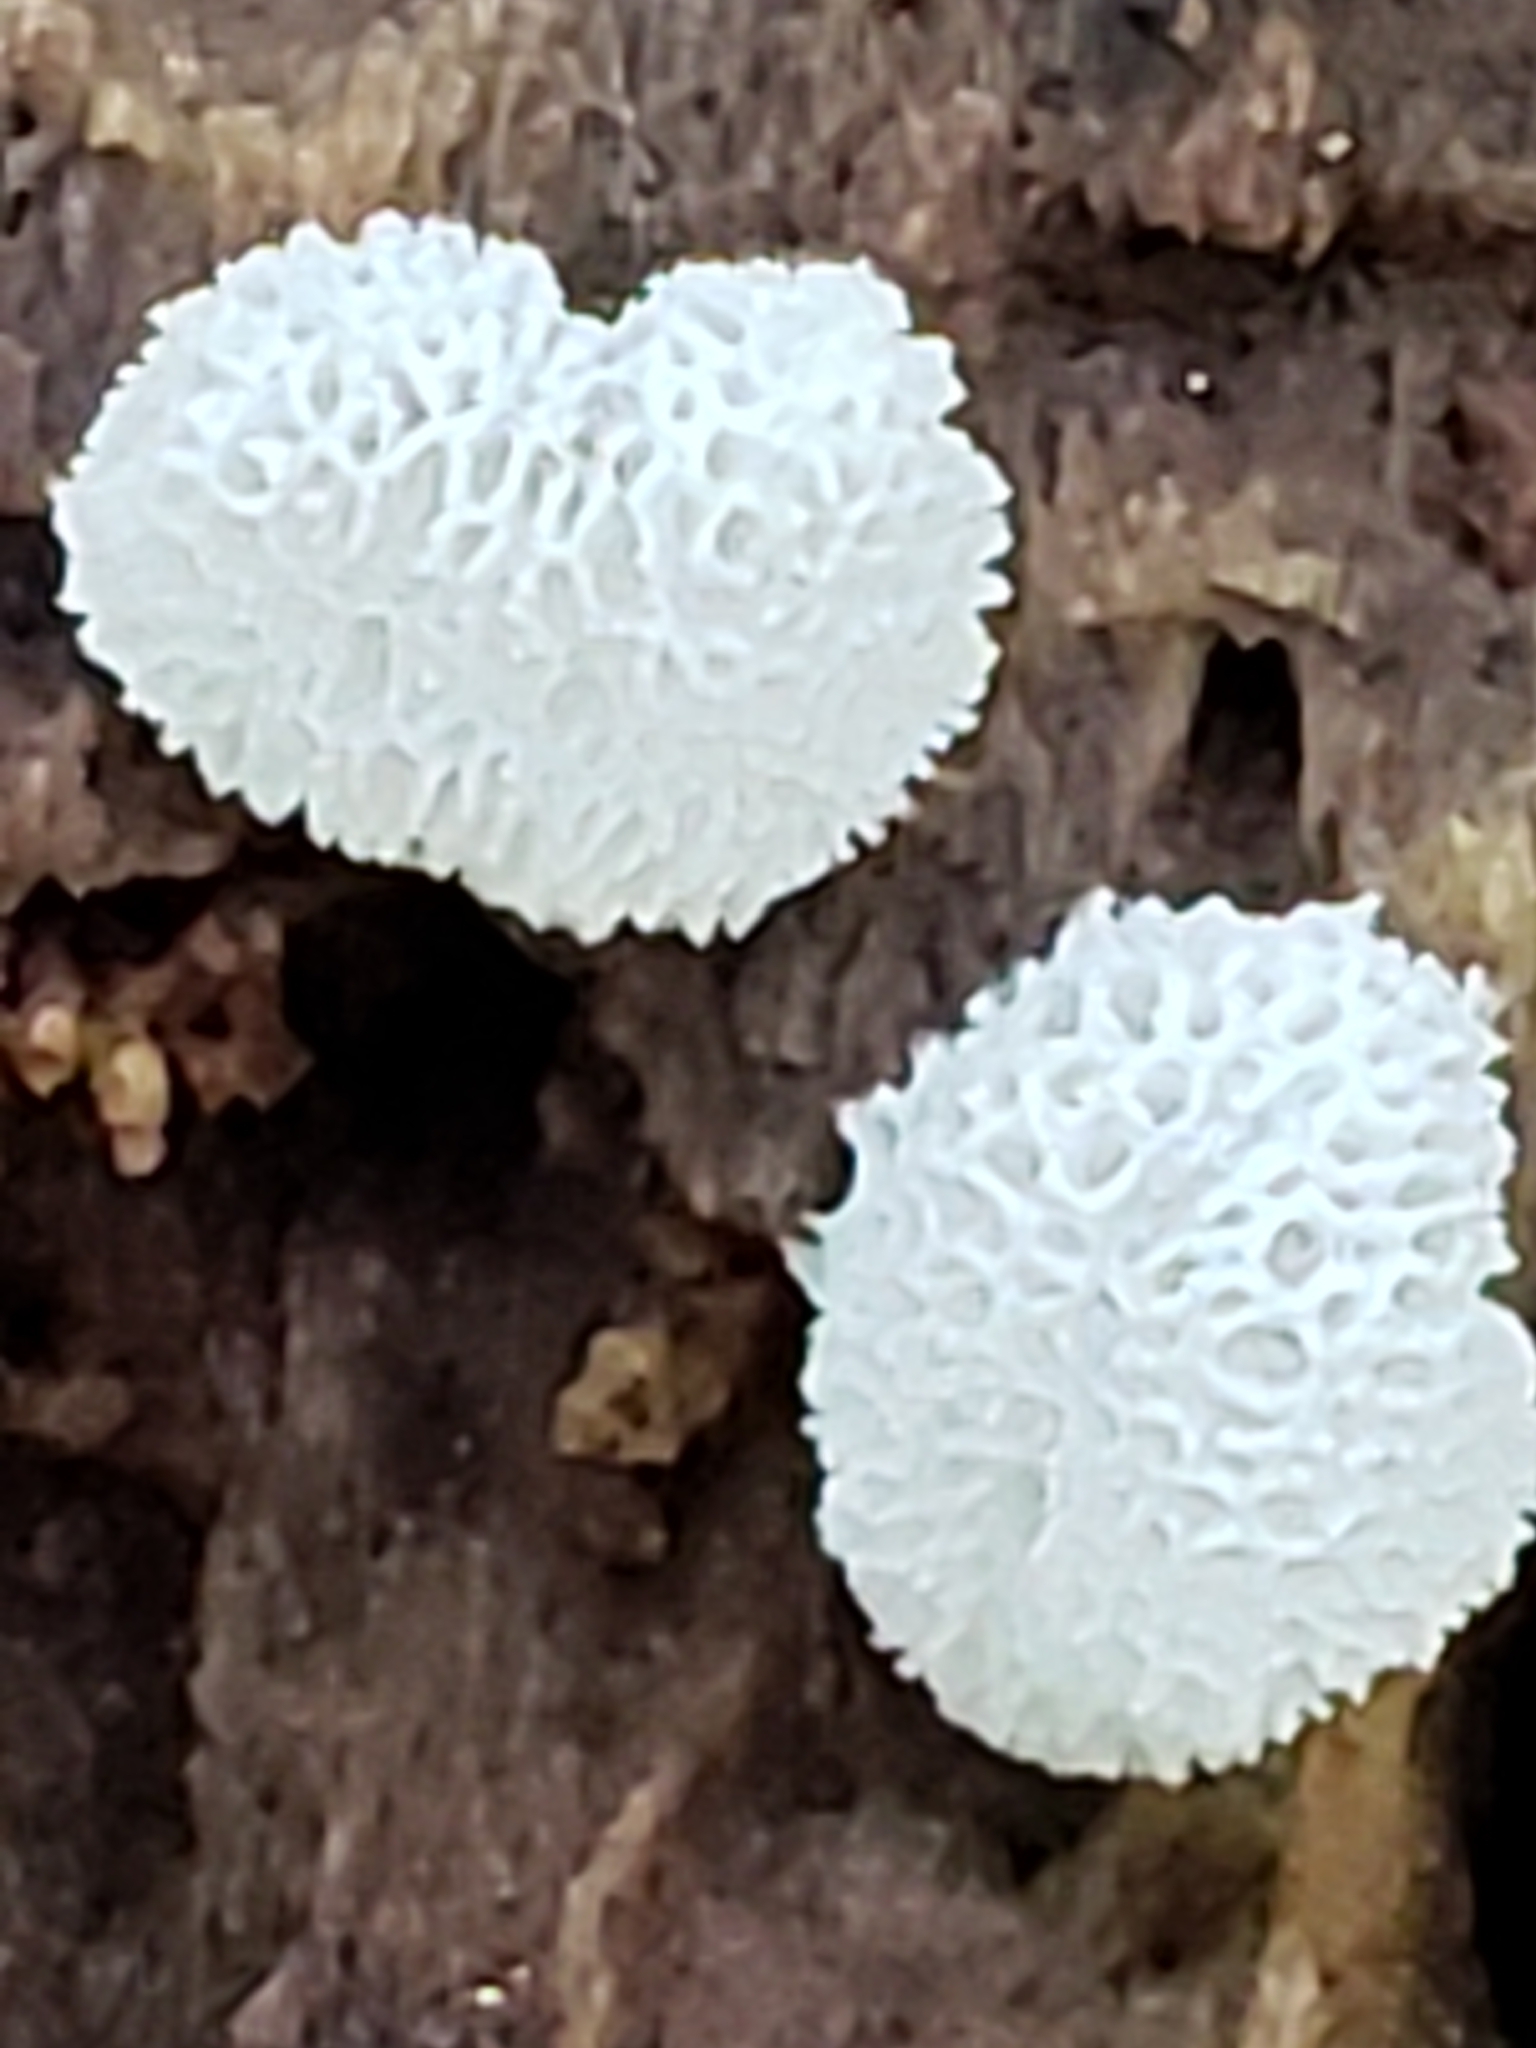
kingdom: Protozoa
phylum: Mycetozoa
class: Protosteliomycetes
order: Ceratiomyxales
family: Ceratiomyxaceae
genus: Ceratiomyxa
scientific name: Ceratiomyxa fruticulosa
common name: Honeycomb coral slime mold
